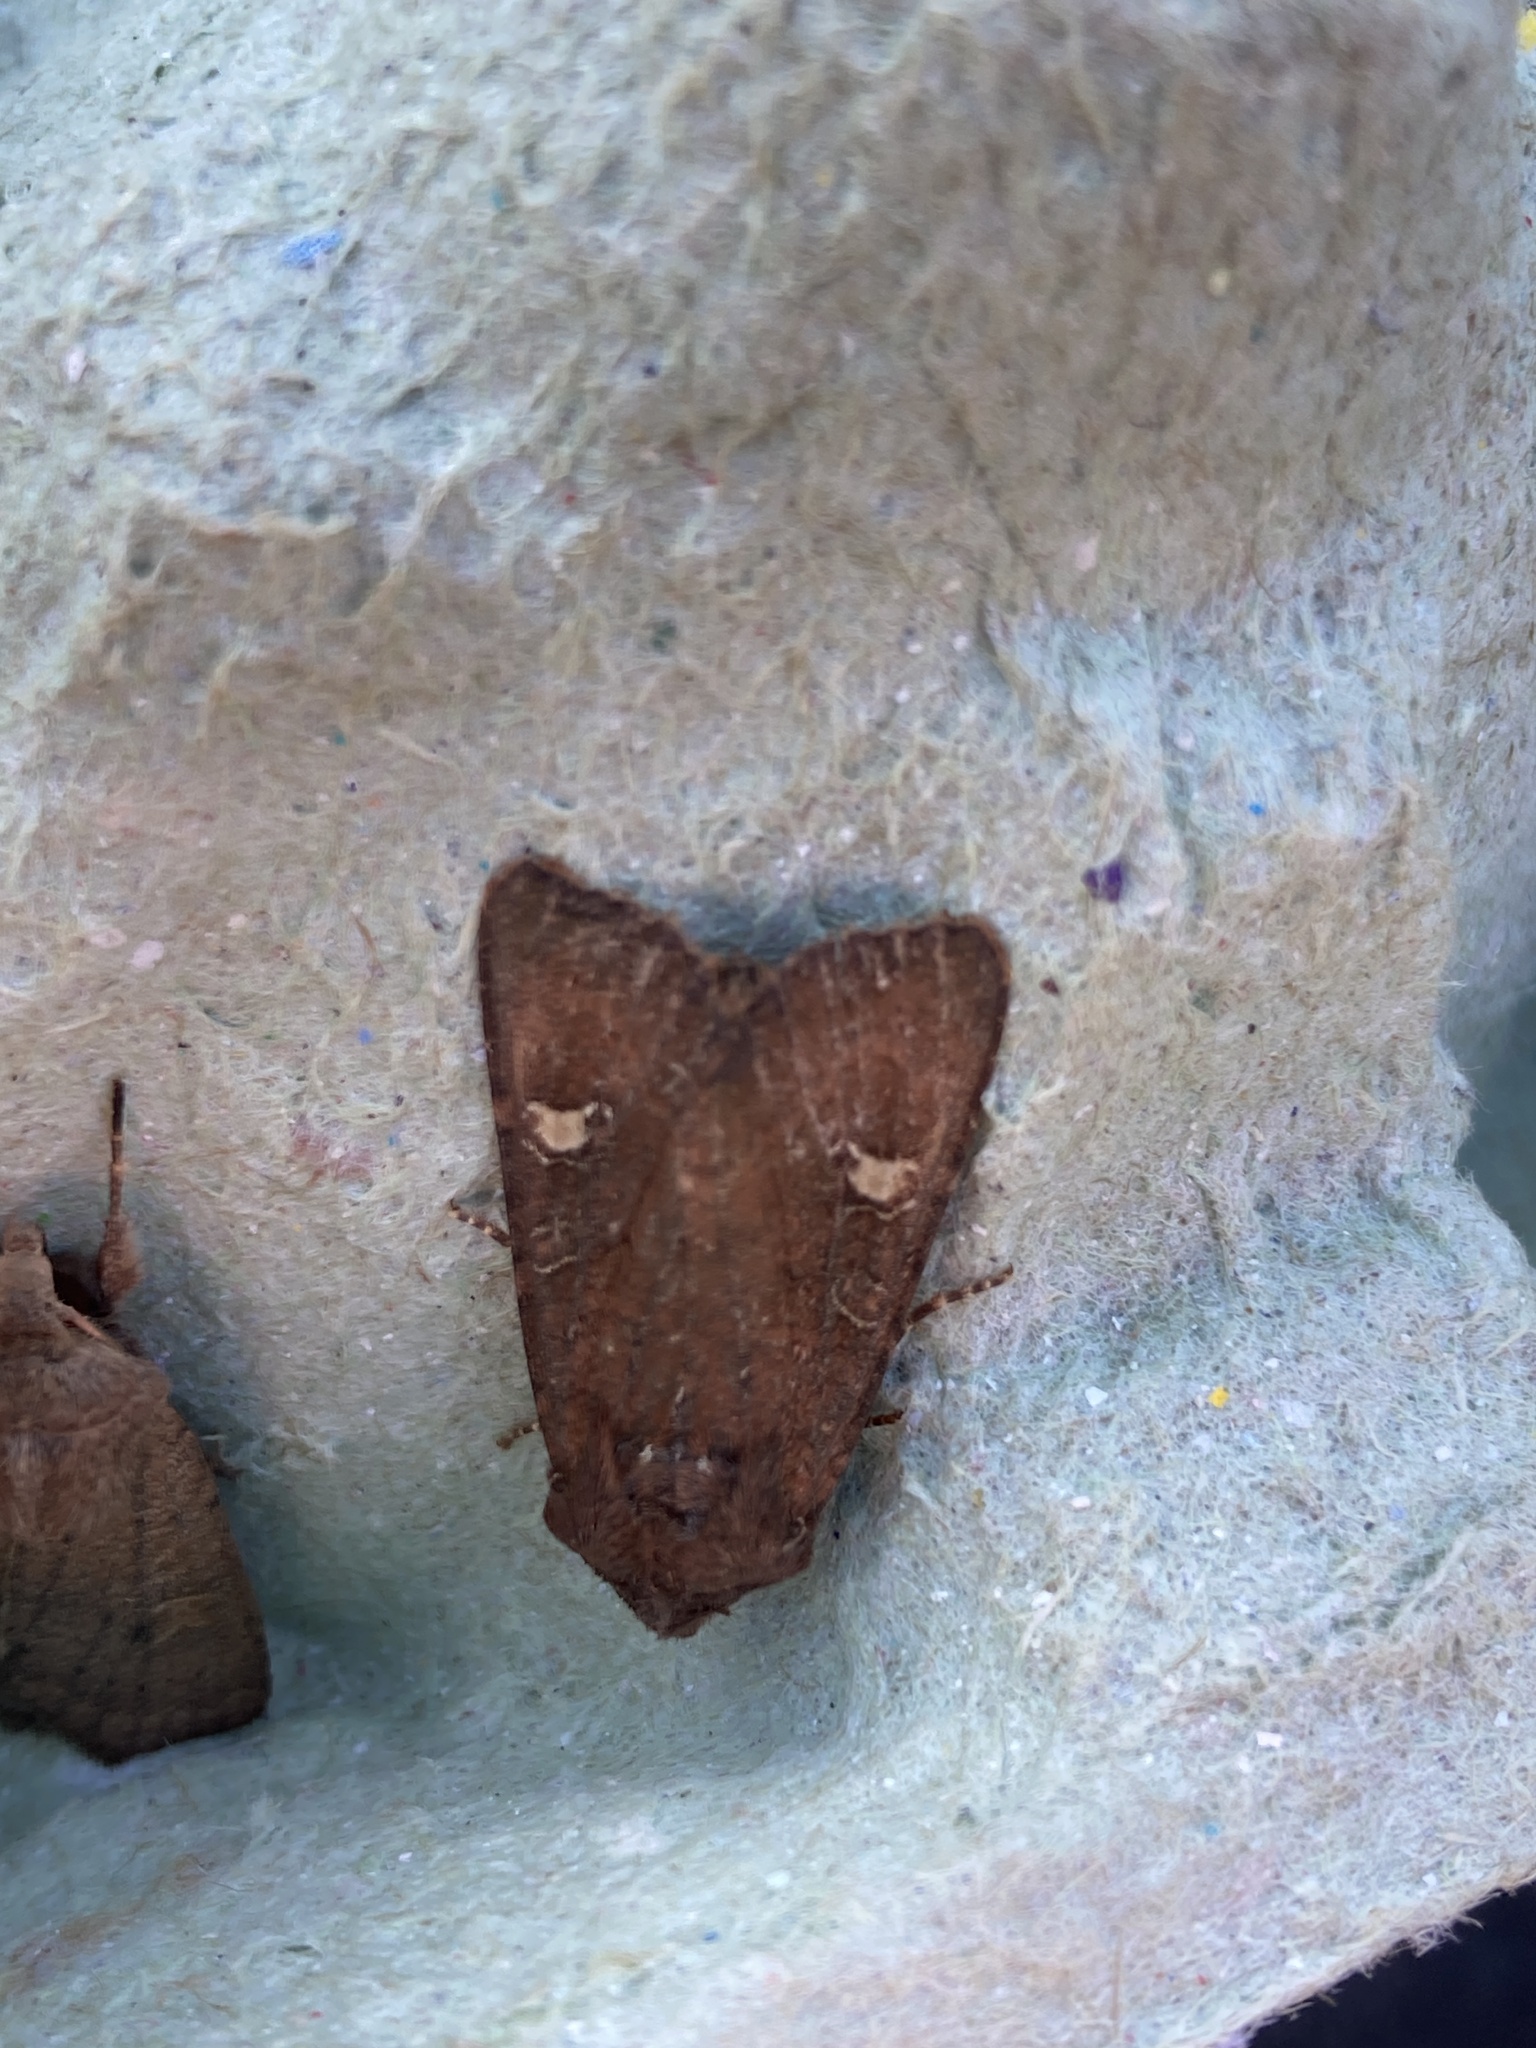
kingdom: Animalia
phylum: Arthropoda
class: Insecta
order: Lepidoptera
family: Noctuidae
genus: Helotropha
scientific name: Helotropha leucostigma
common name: The crescent
